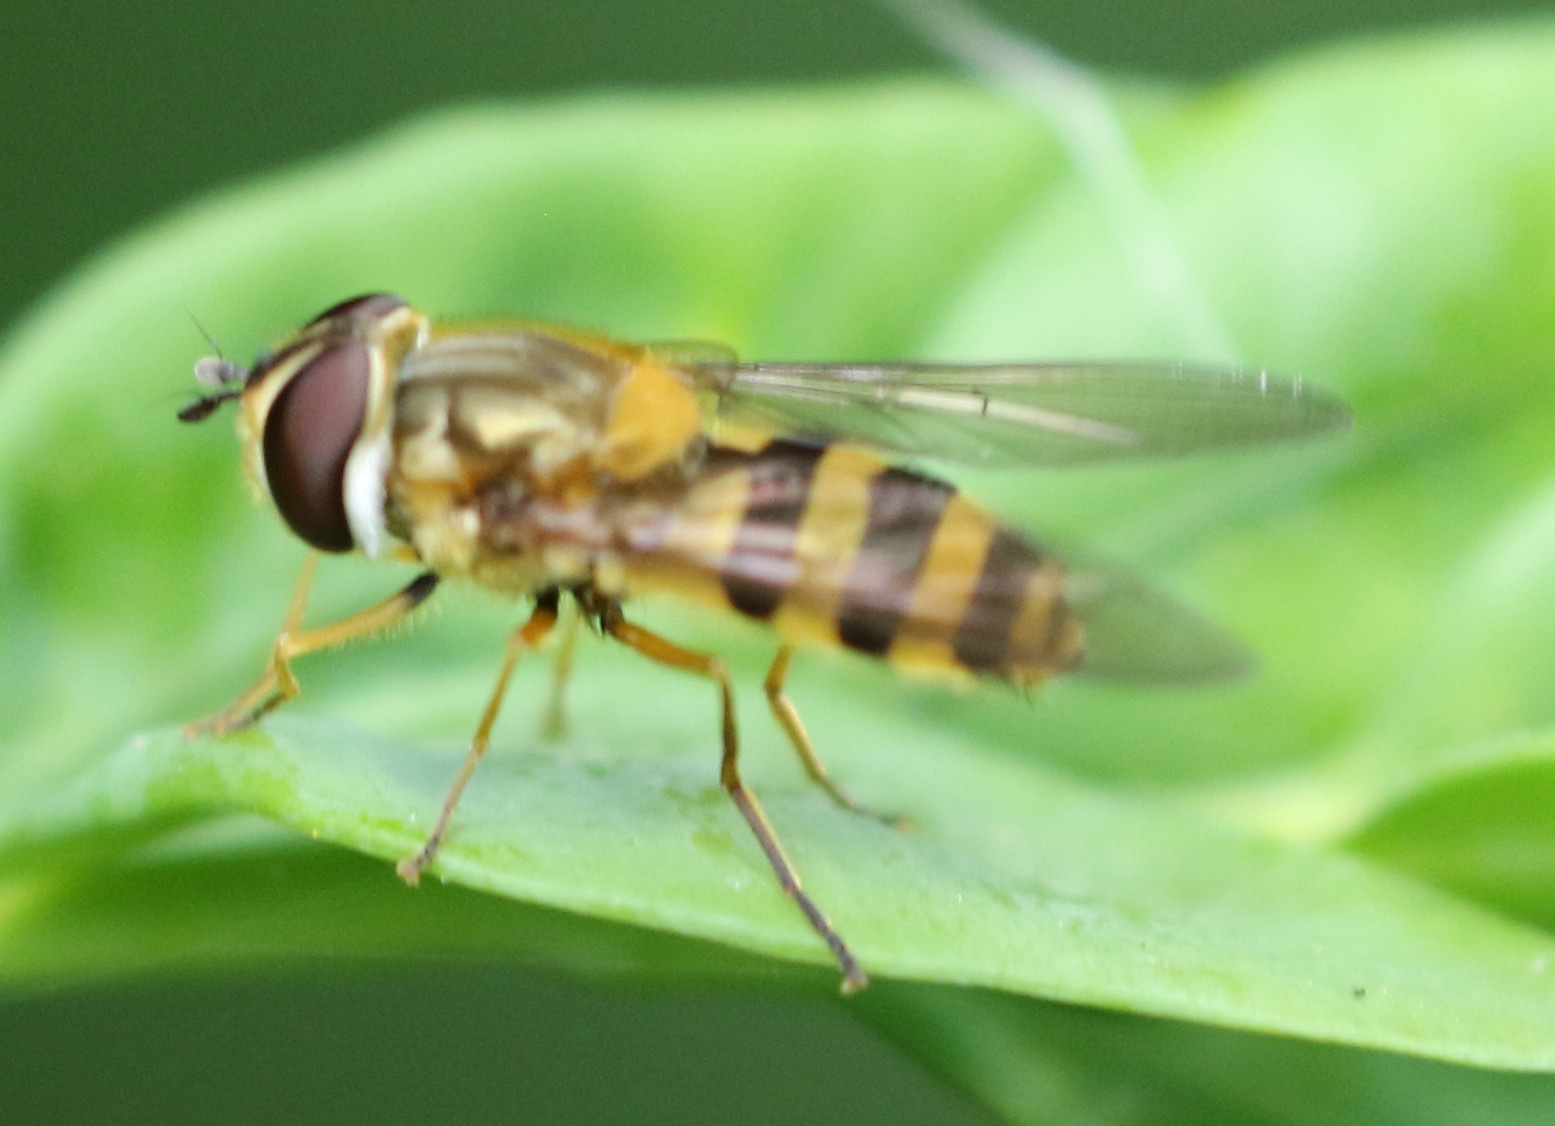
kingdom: Animalia
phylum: Arthropoda
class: Insecta
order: Diptera
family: Syrphidae
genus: Epistrophe
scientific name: Epistrophe grossulariae
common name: Black-horned smoothtail
